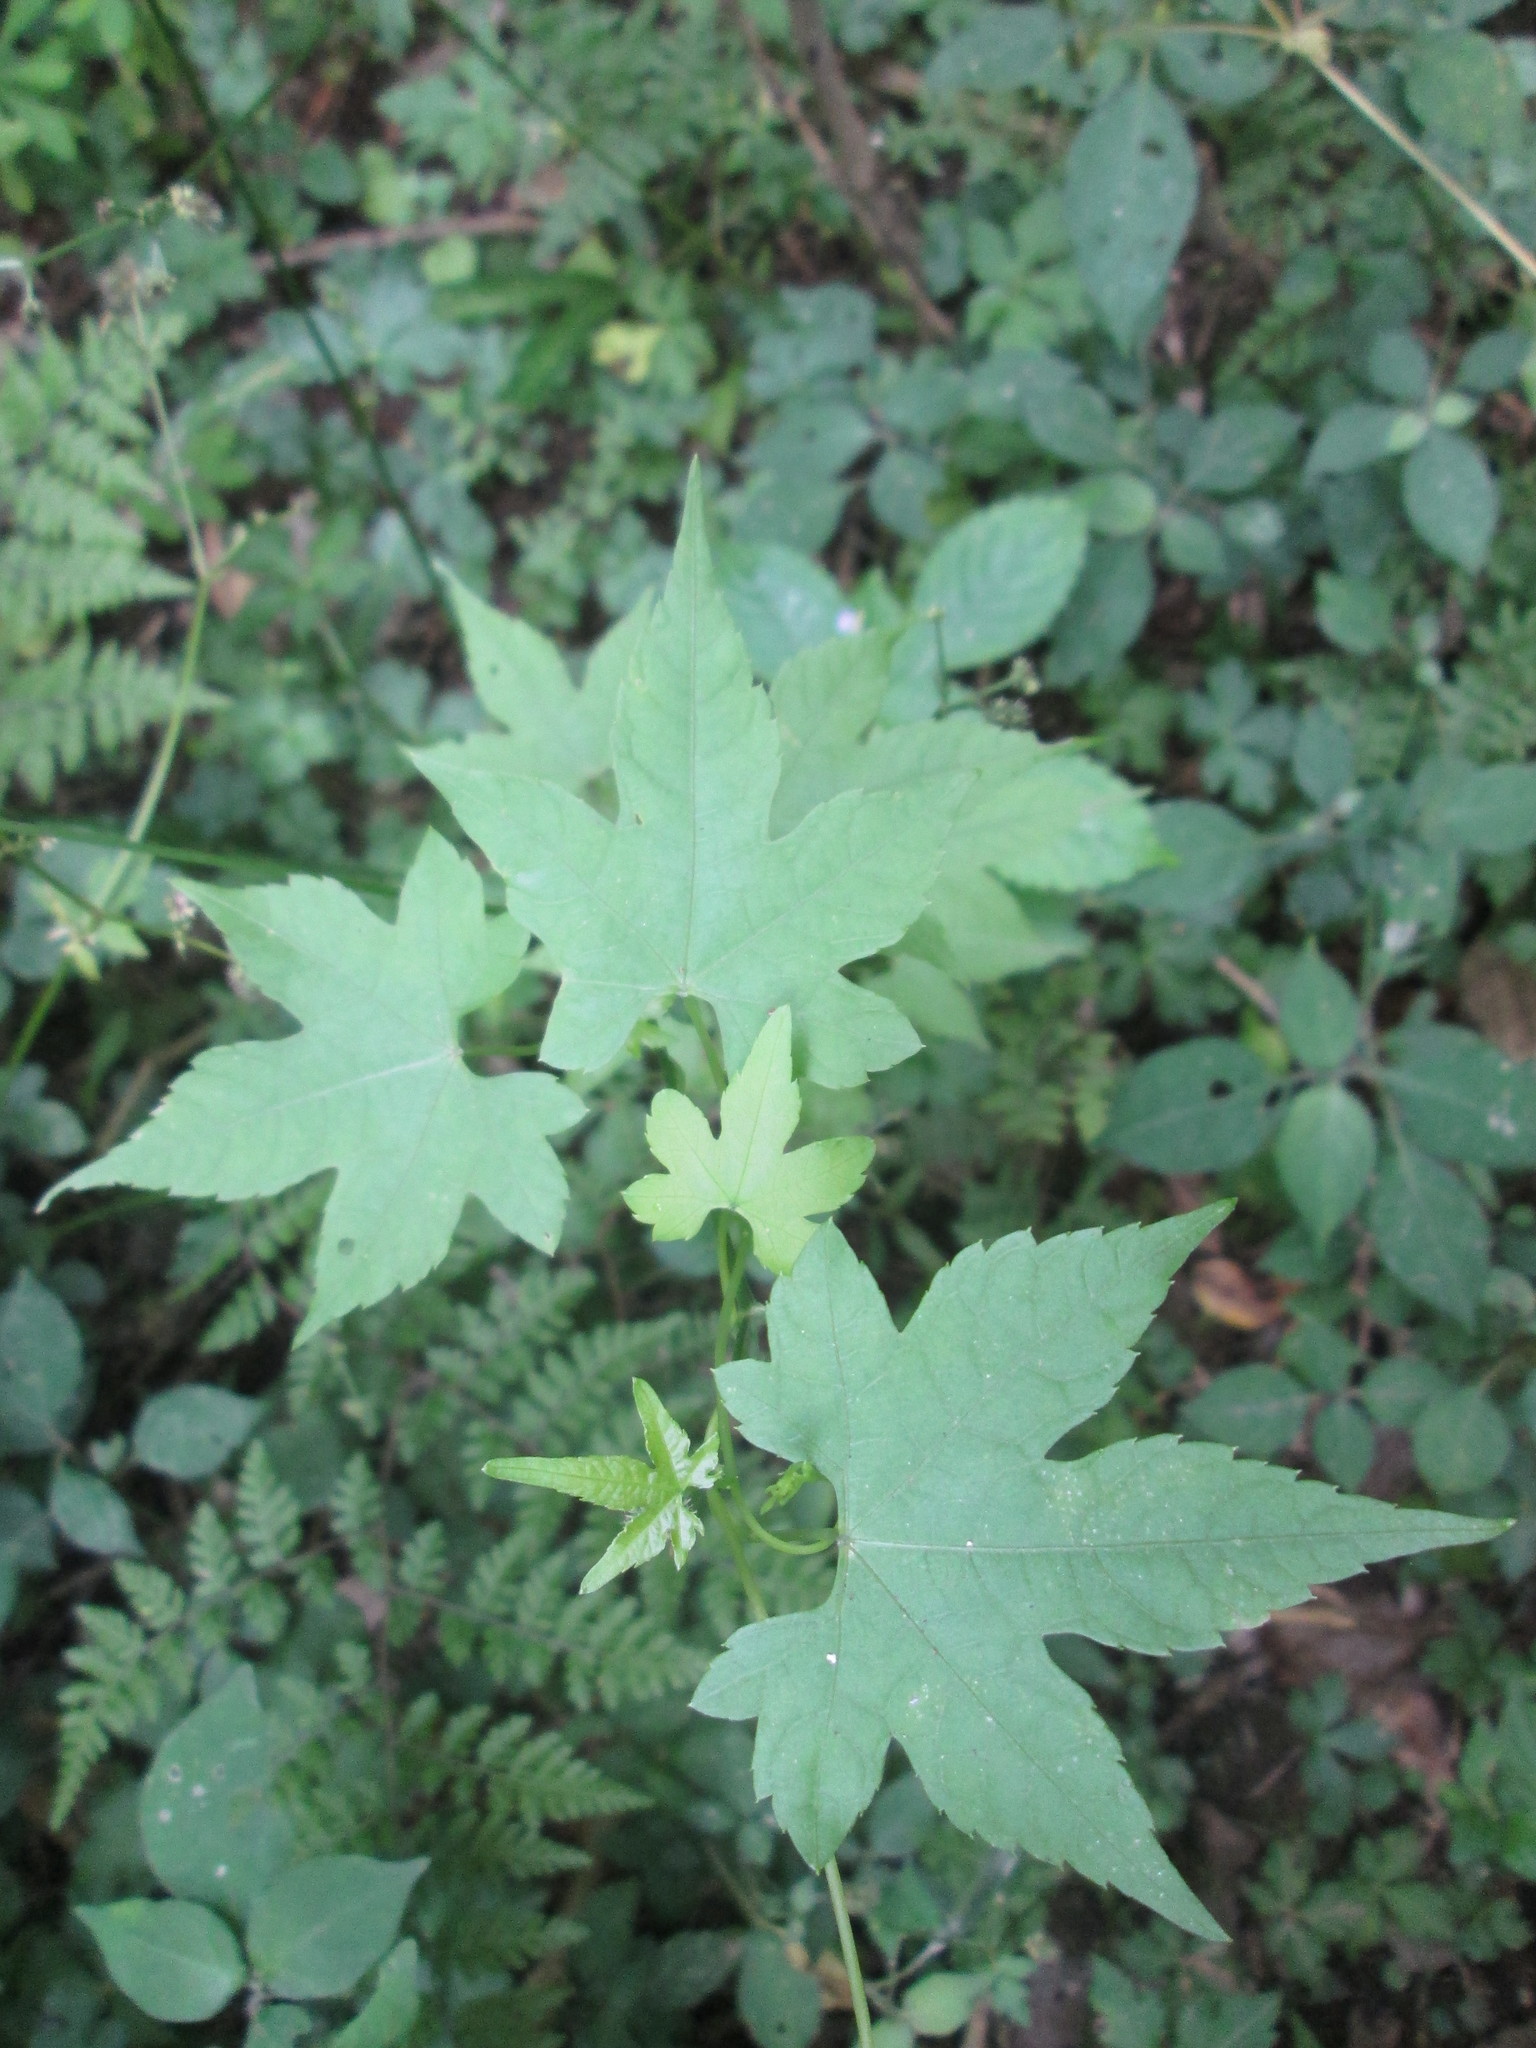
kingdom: Plantae
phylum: Tracheophyta
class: Magnoliopsida
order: Malpighiales
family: Achariaceae
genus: Ceratiosicyos
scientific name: Ceratiosicyos laevis
